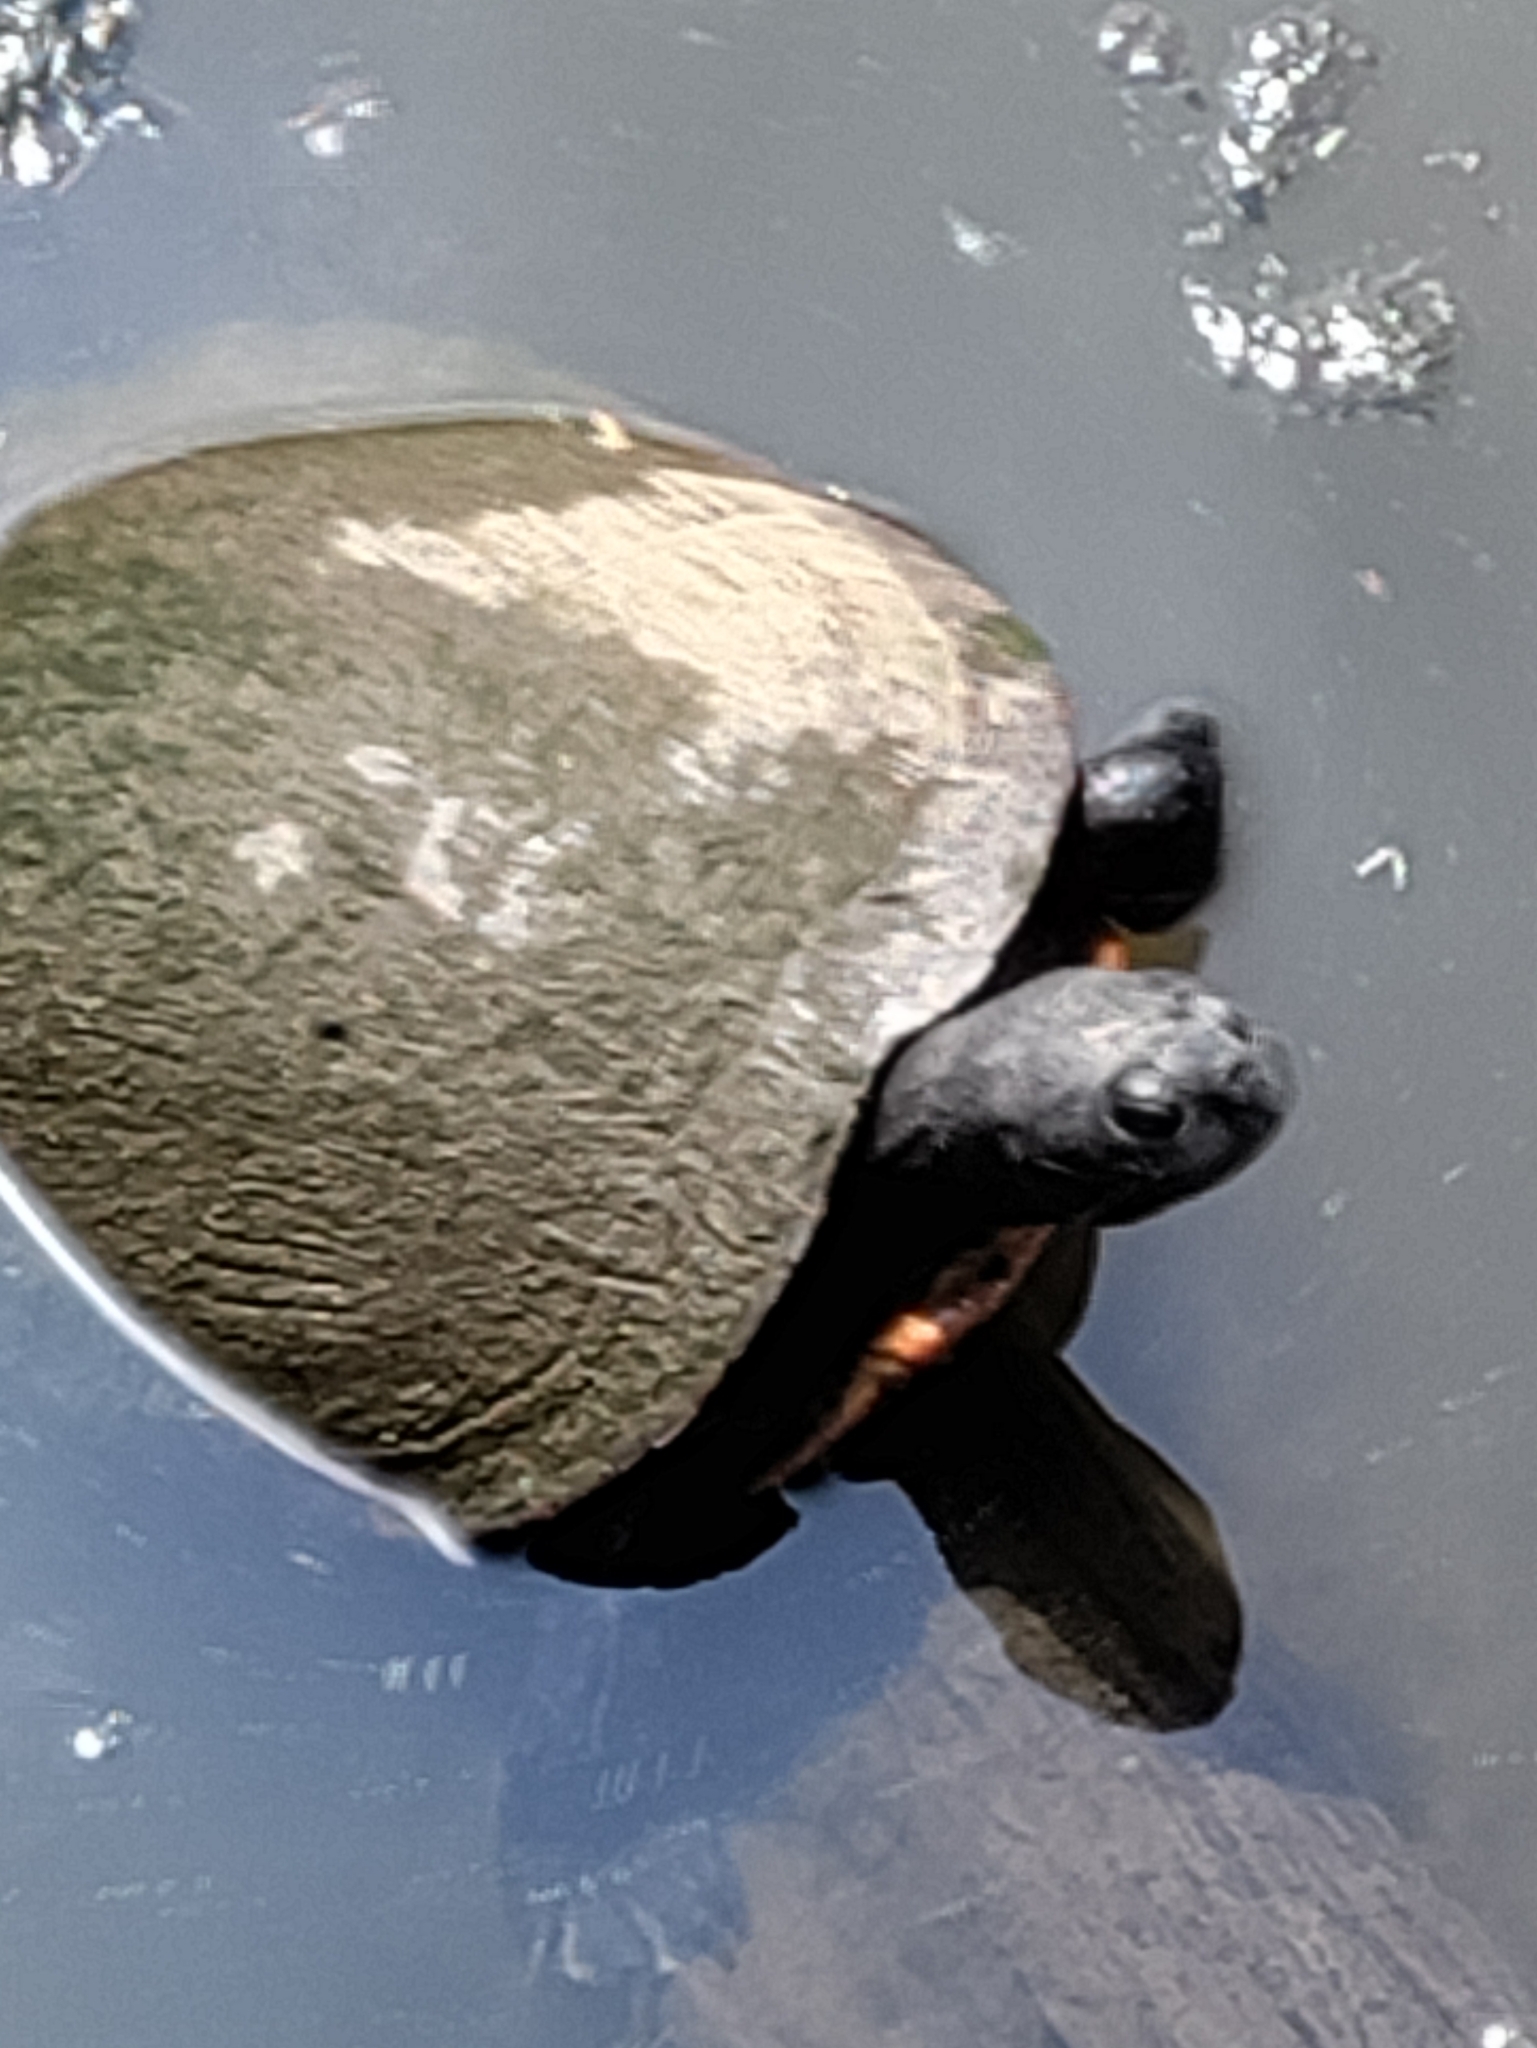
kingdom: Animalia
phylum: Chordata
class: Testudines
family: Emydidae
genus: Pseudemys
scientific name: Pseudemys rubriventris
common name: American red-bellied turtle
